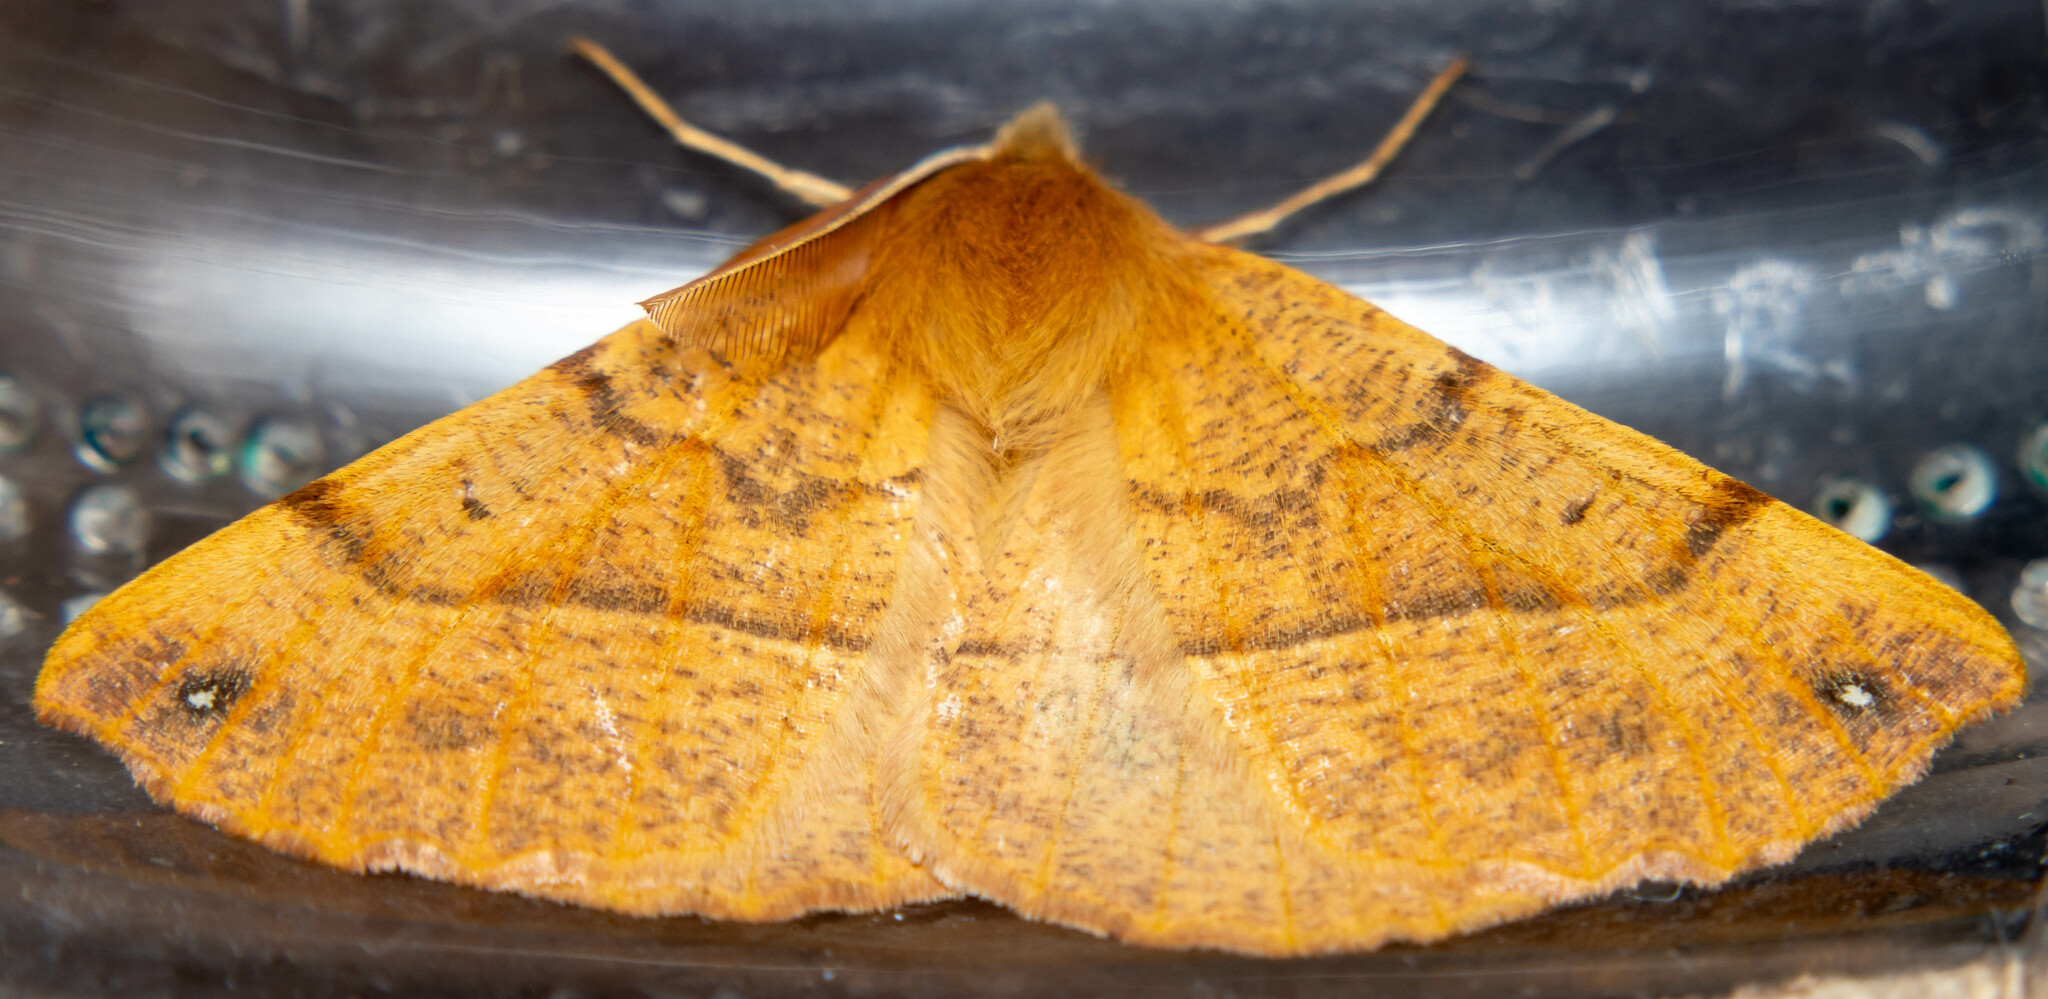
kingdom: Animalia
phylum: Arthropoda
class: Insecta
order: Lepidoptera
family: Geometridae
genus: Colotois
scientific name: Colotois pennaria
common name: Feathered thorn
